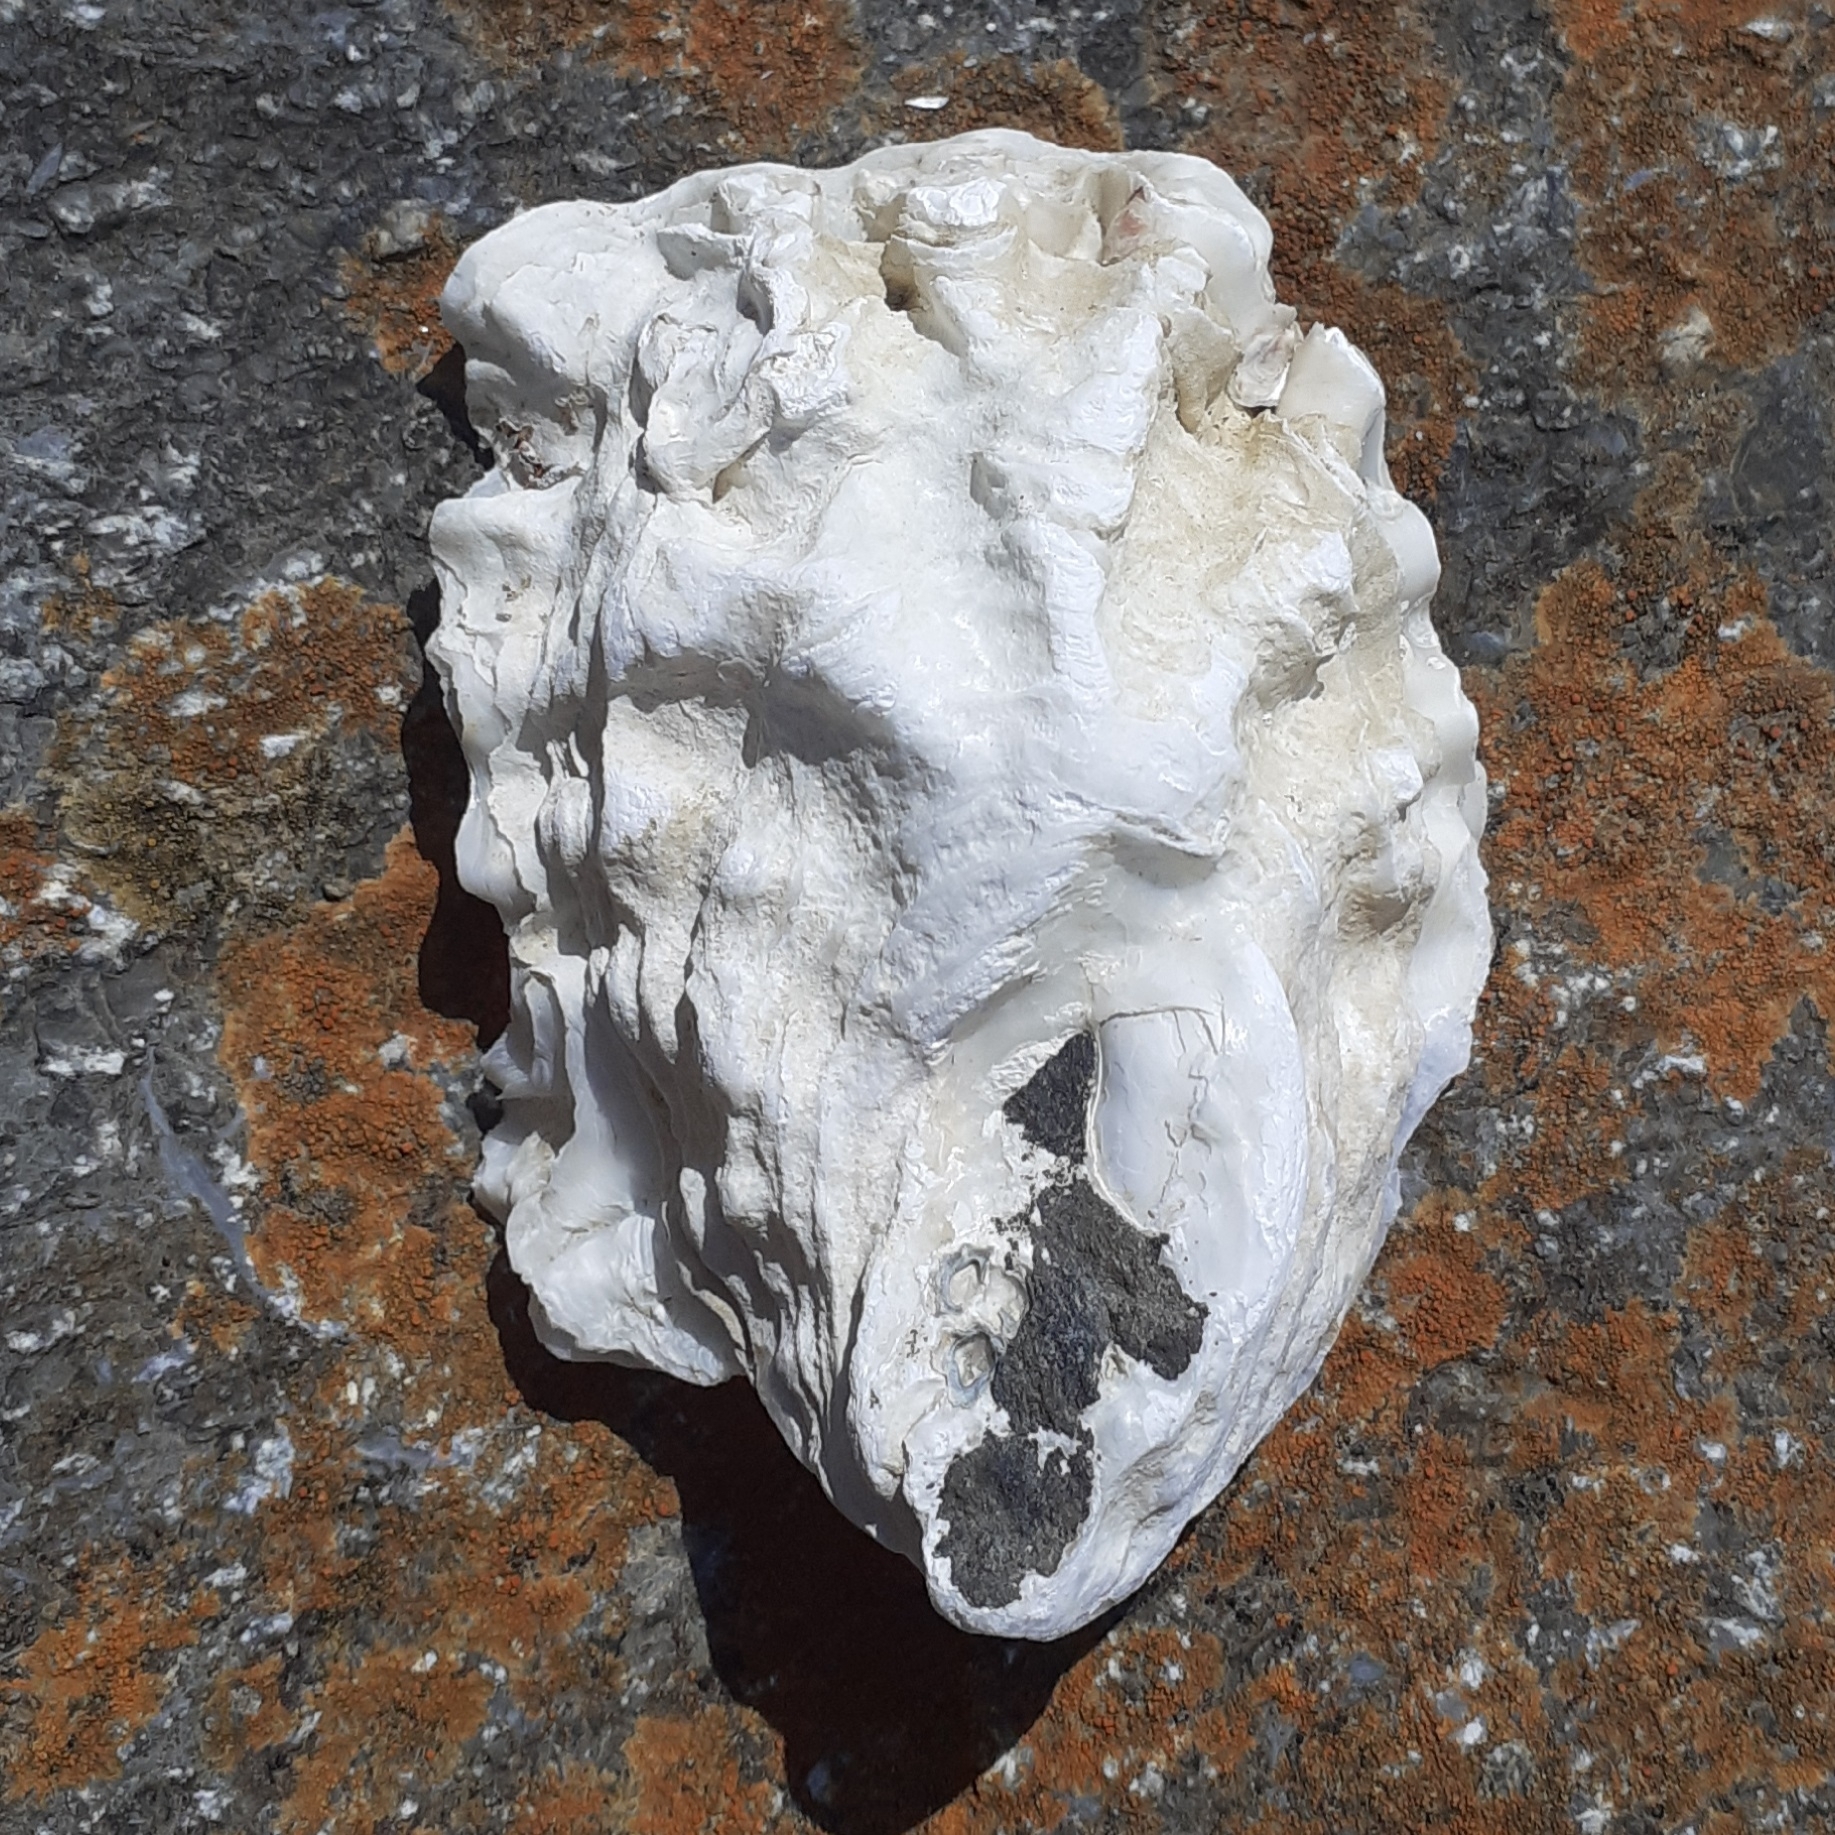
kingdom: Animalia
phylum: Mollusca
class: Bivalvia
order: Ostreida
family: Ostreidae
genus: Magallana
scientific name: Magallana gigas
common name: Pacific oyster
